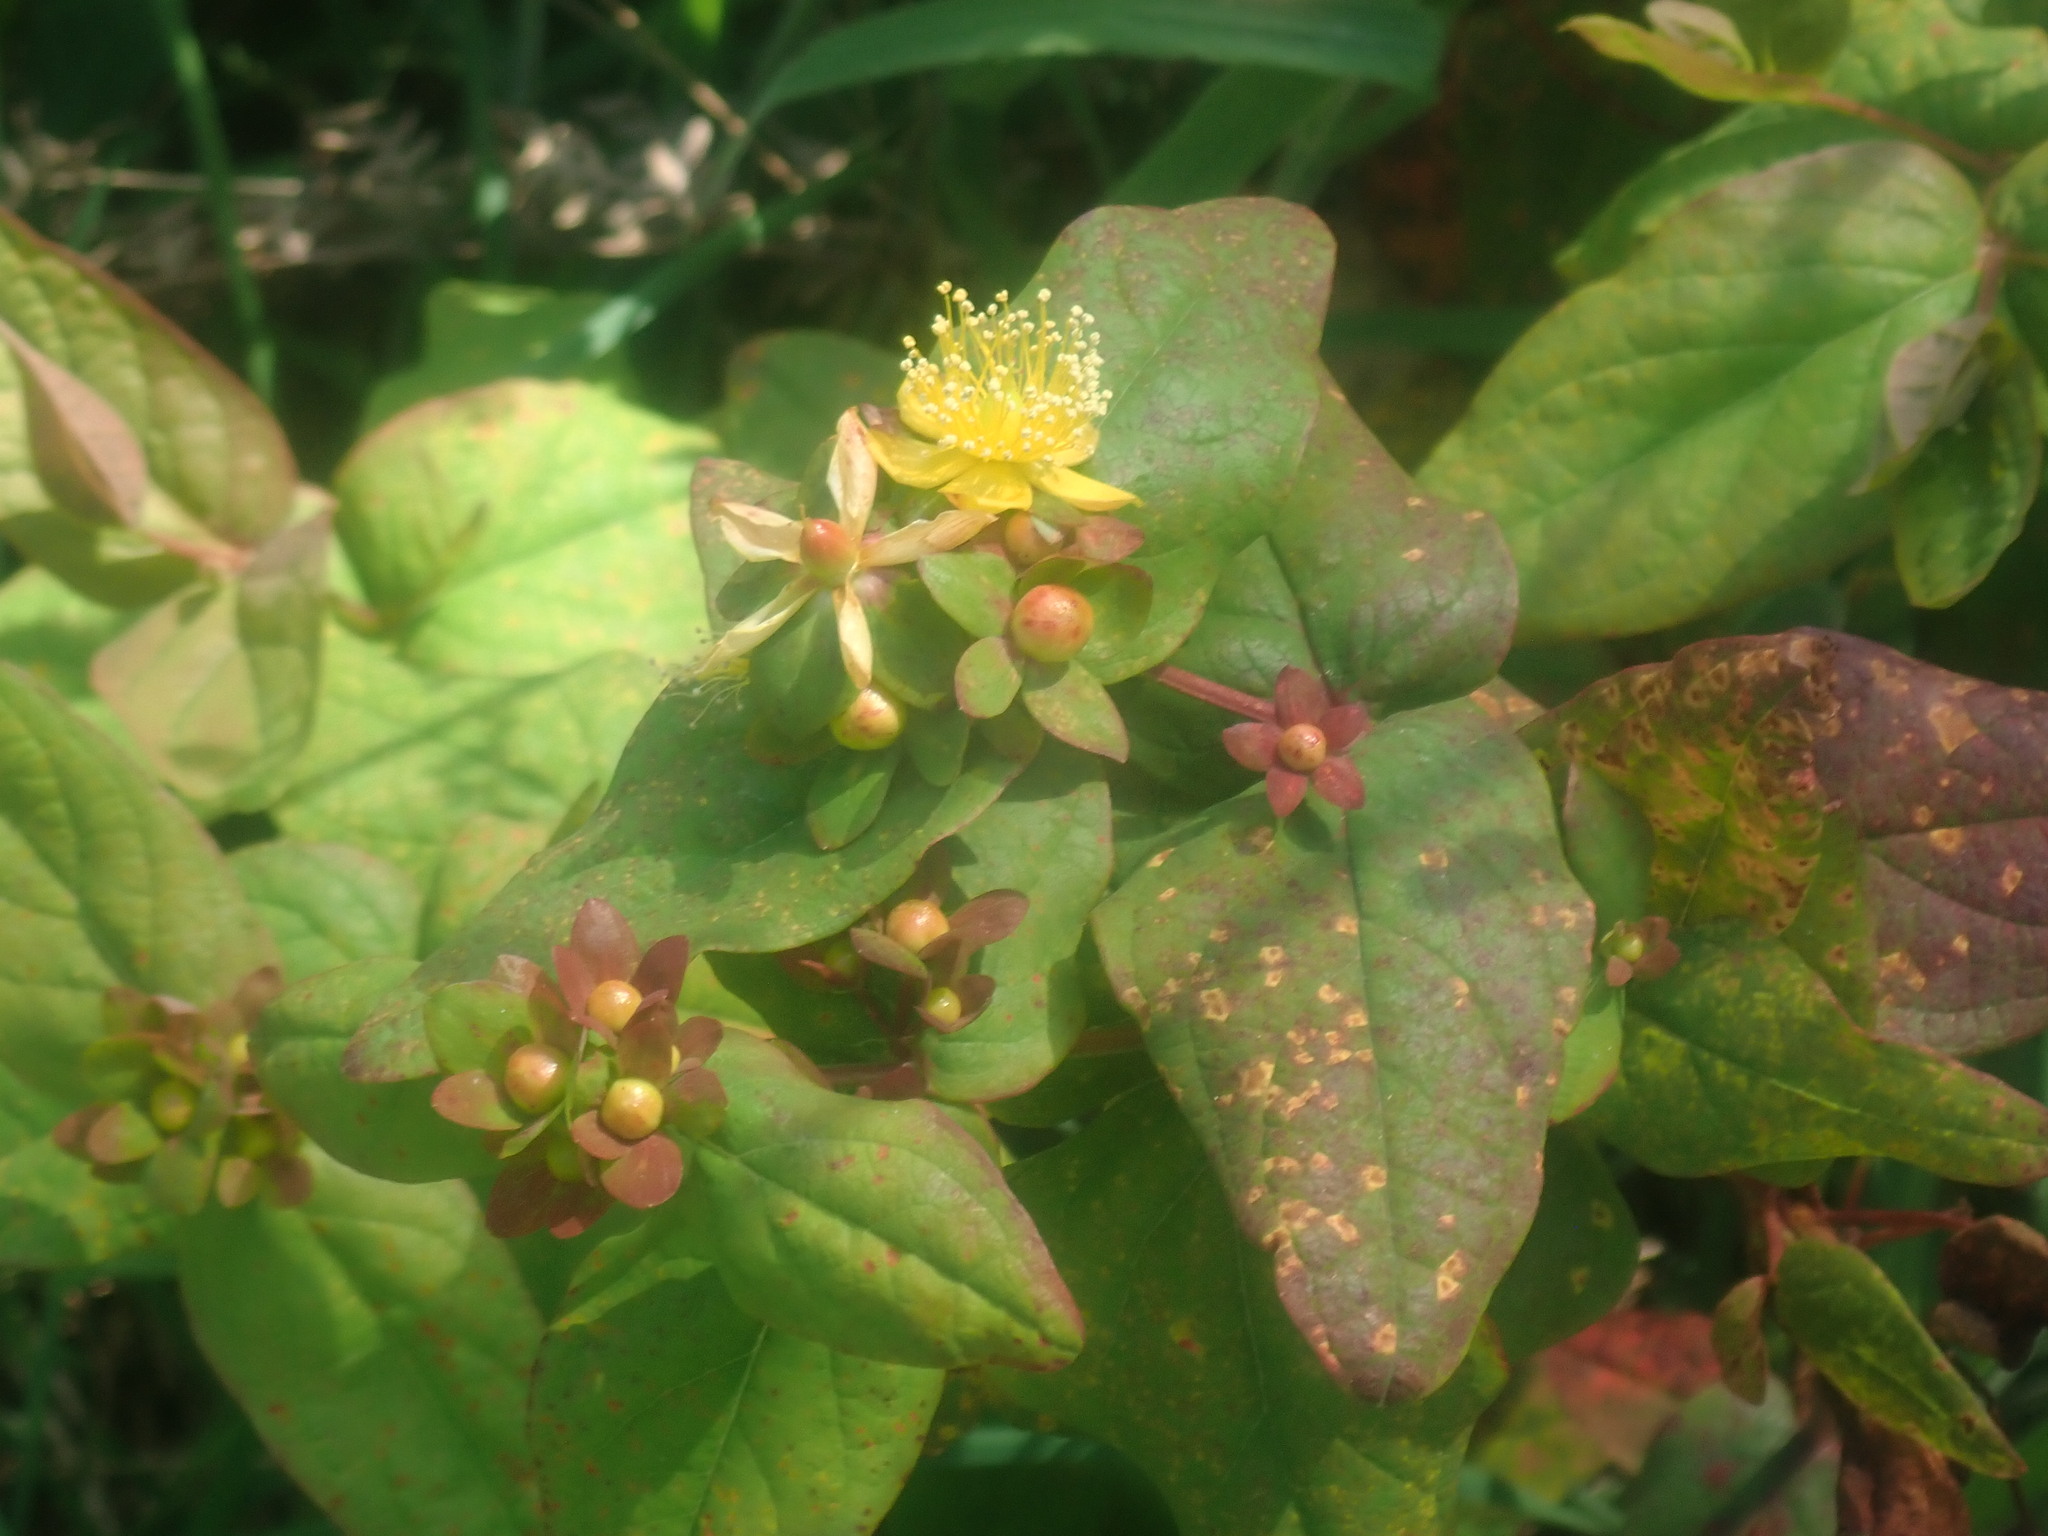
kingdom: Plantae
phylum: Tracheophyta
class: Magnoliopsida
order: Malpighiales
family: Hypericaceae
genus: Hypericum
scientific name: Hypericum androsaemum
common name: Sweet-amber
